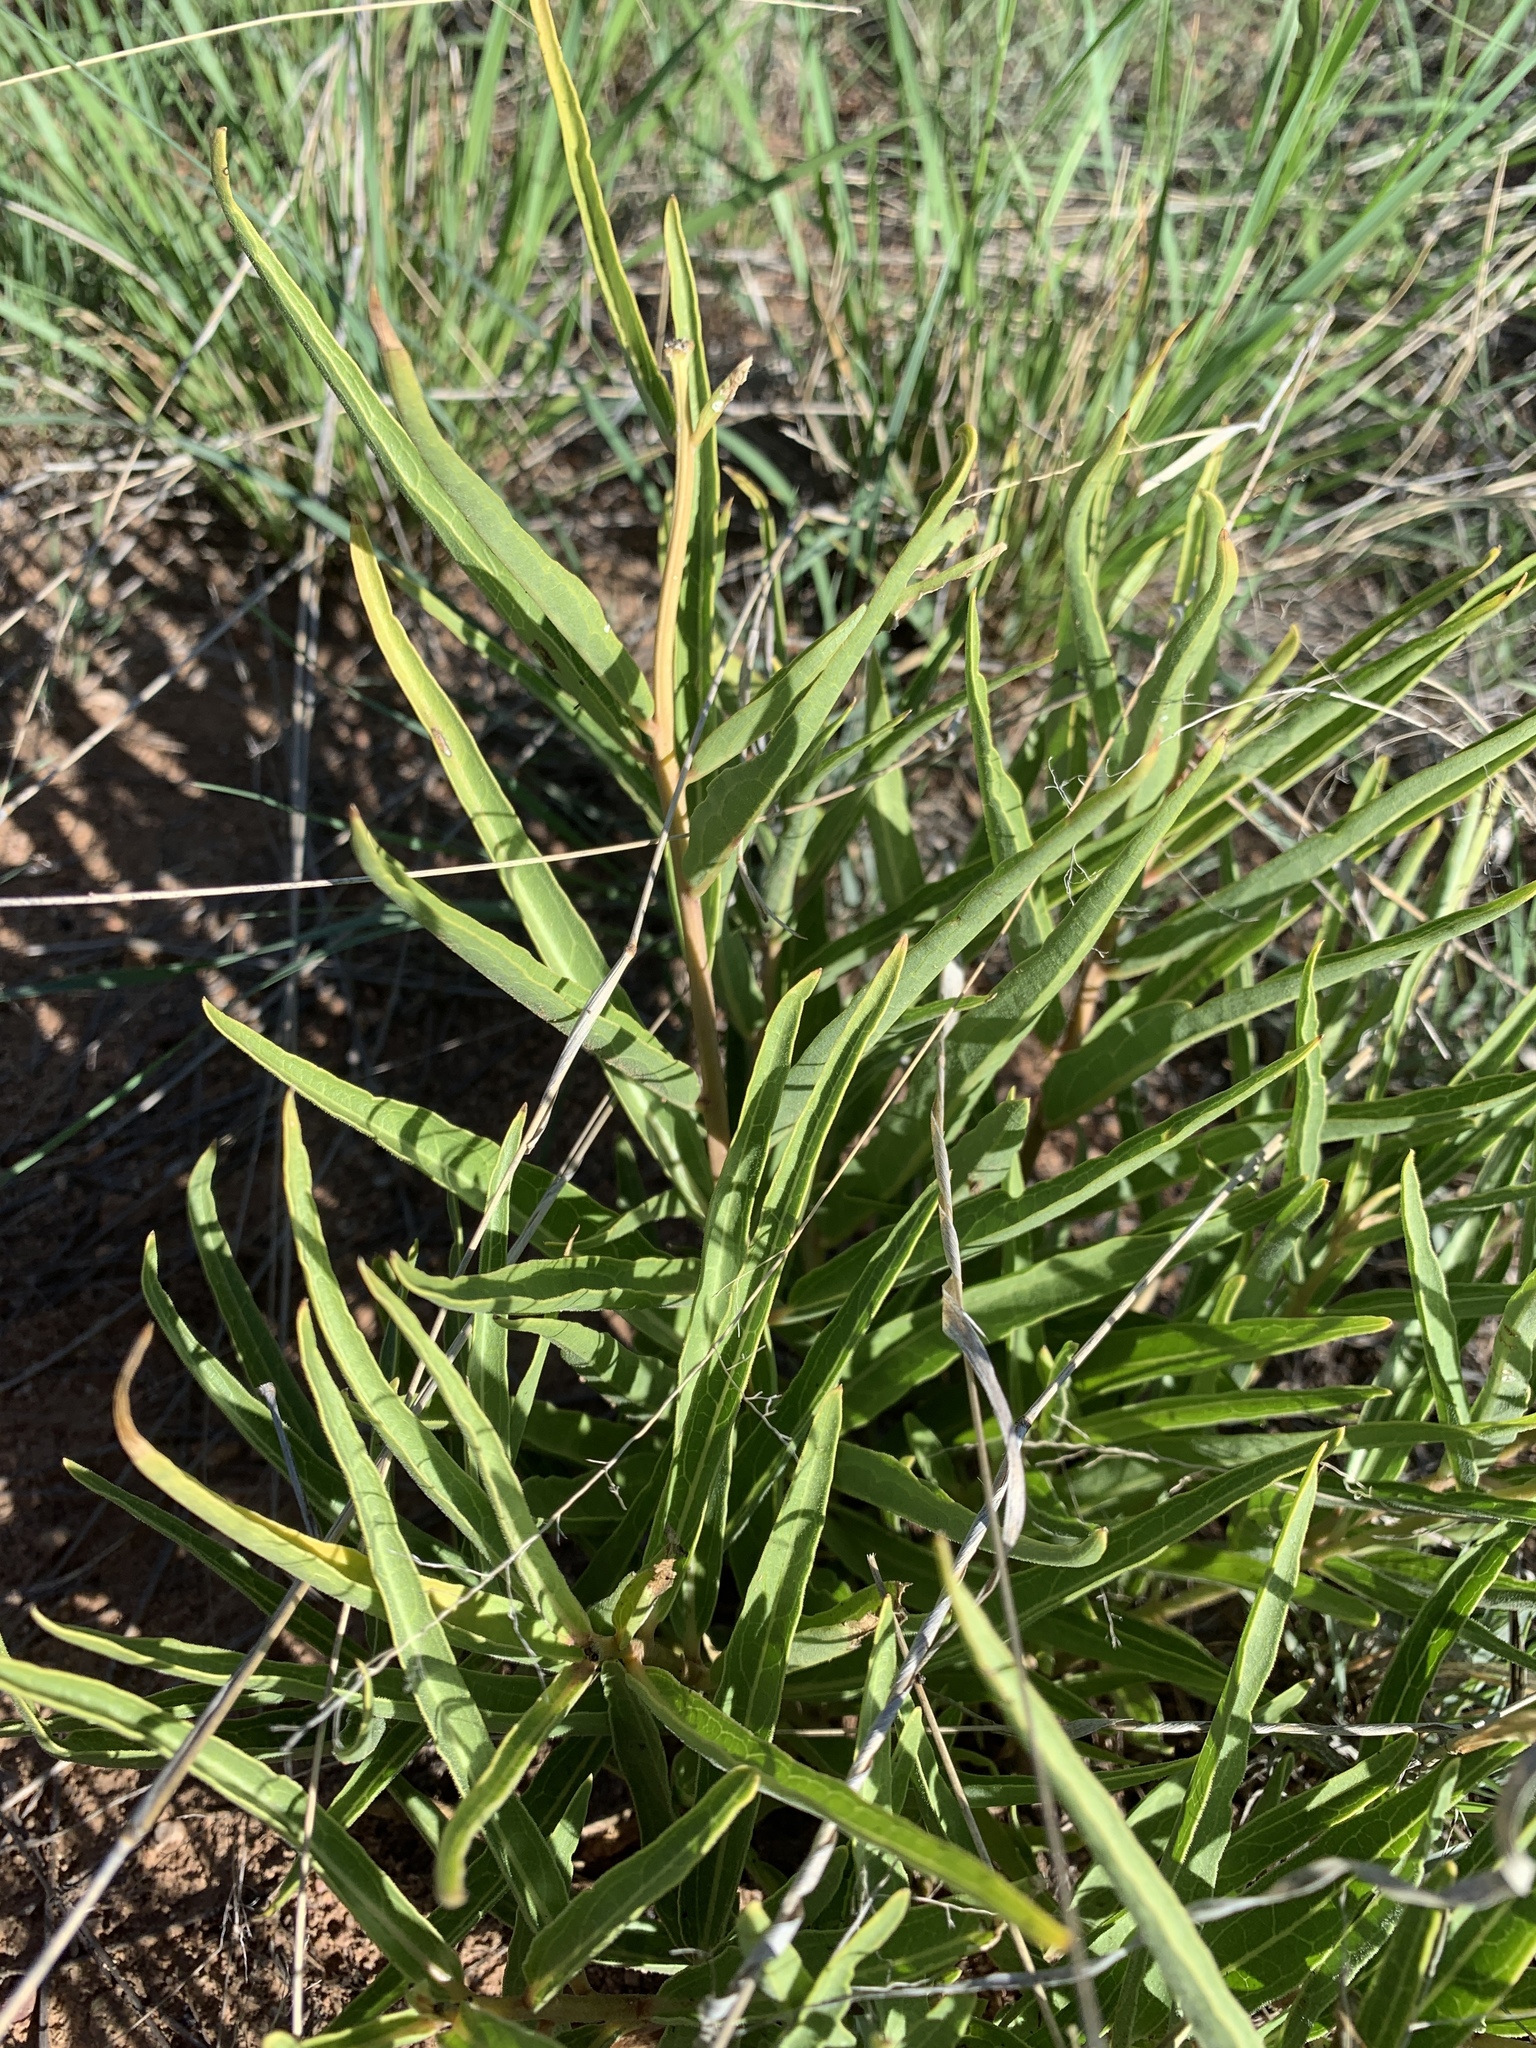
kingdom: Plantae
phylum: Tracheophyta
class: Magnoliopsida
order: Gentianales
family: Apocynaceae
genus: Asclepias
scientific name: Asclepias asperula
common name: Antelope horns
